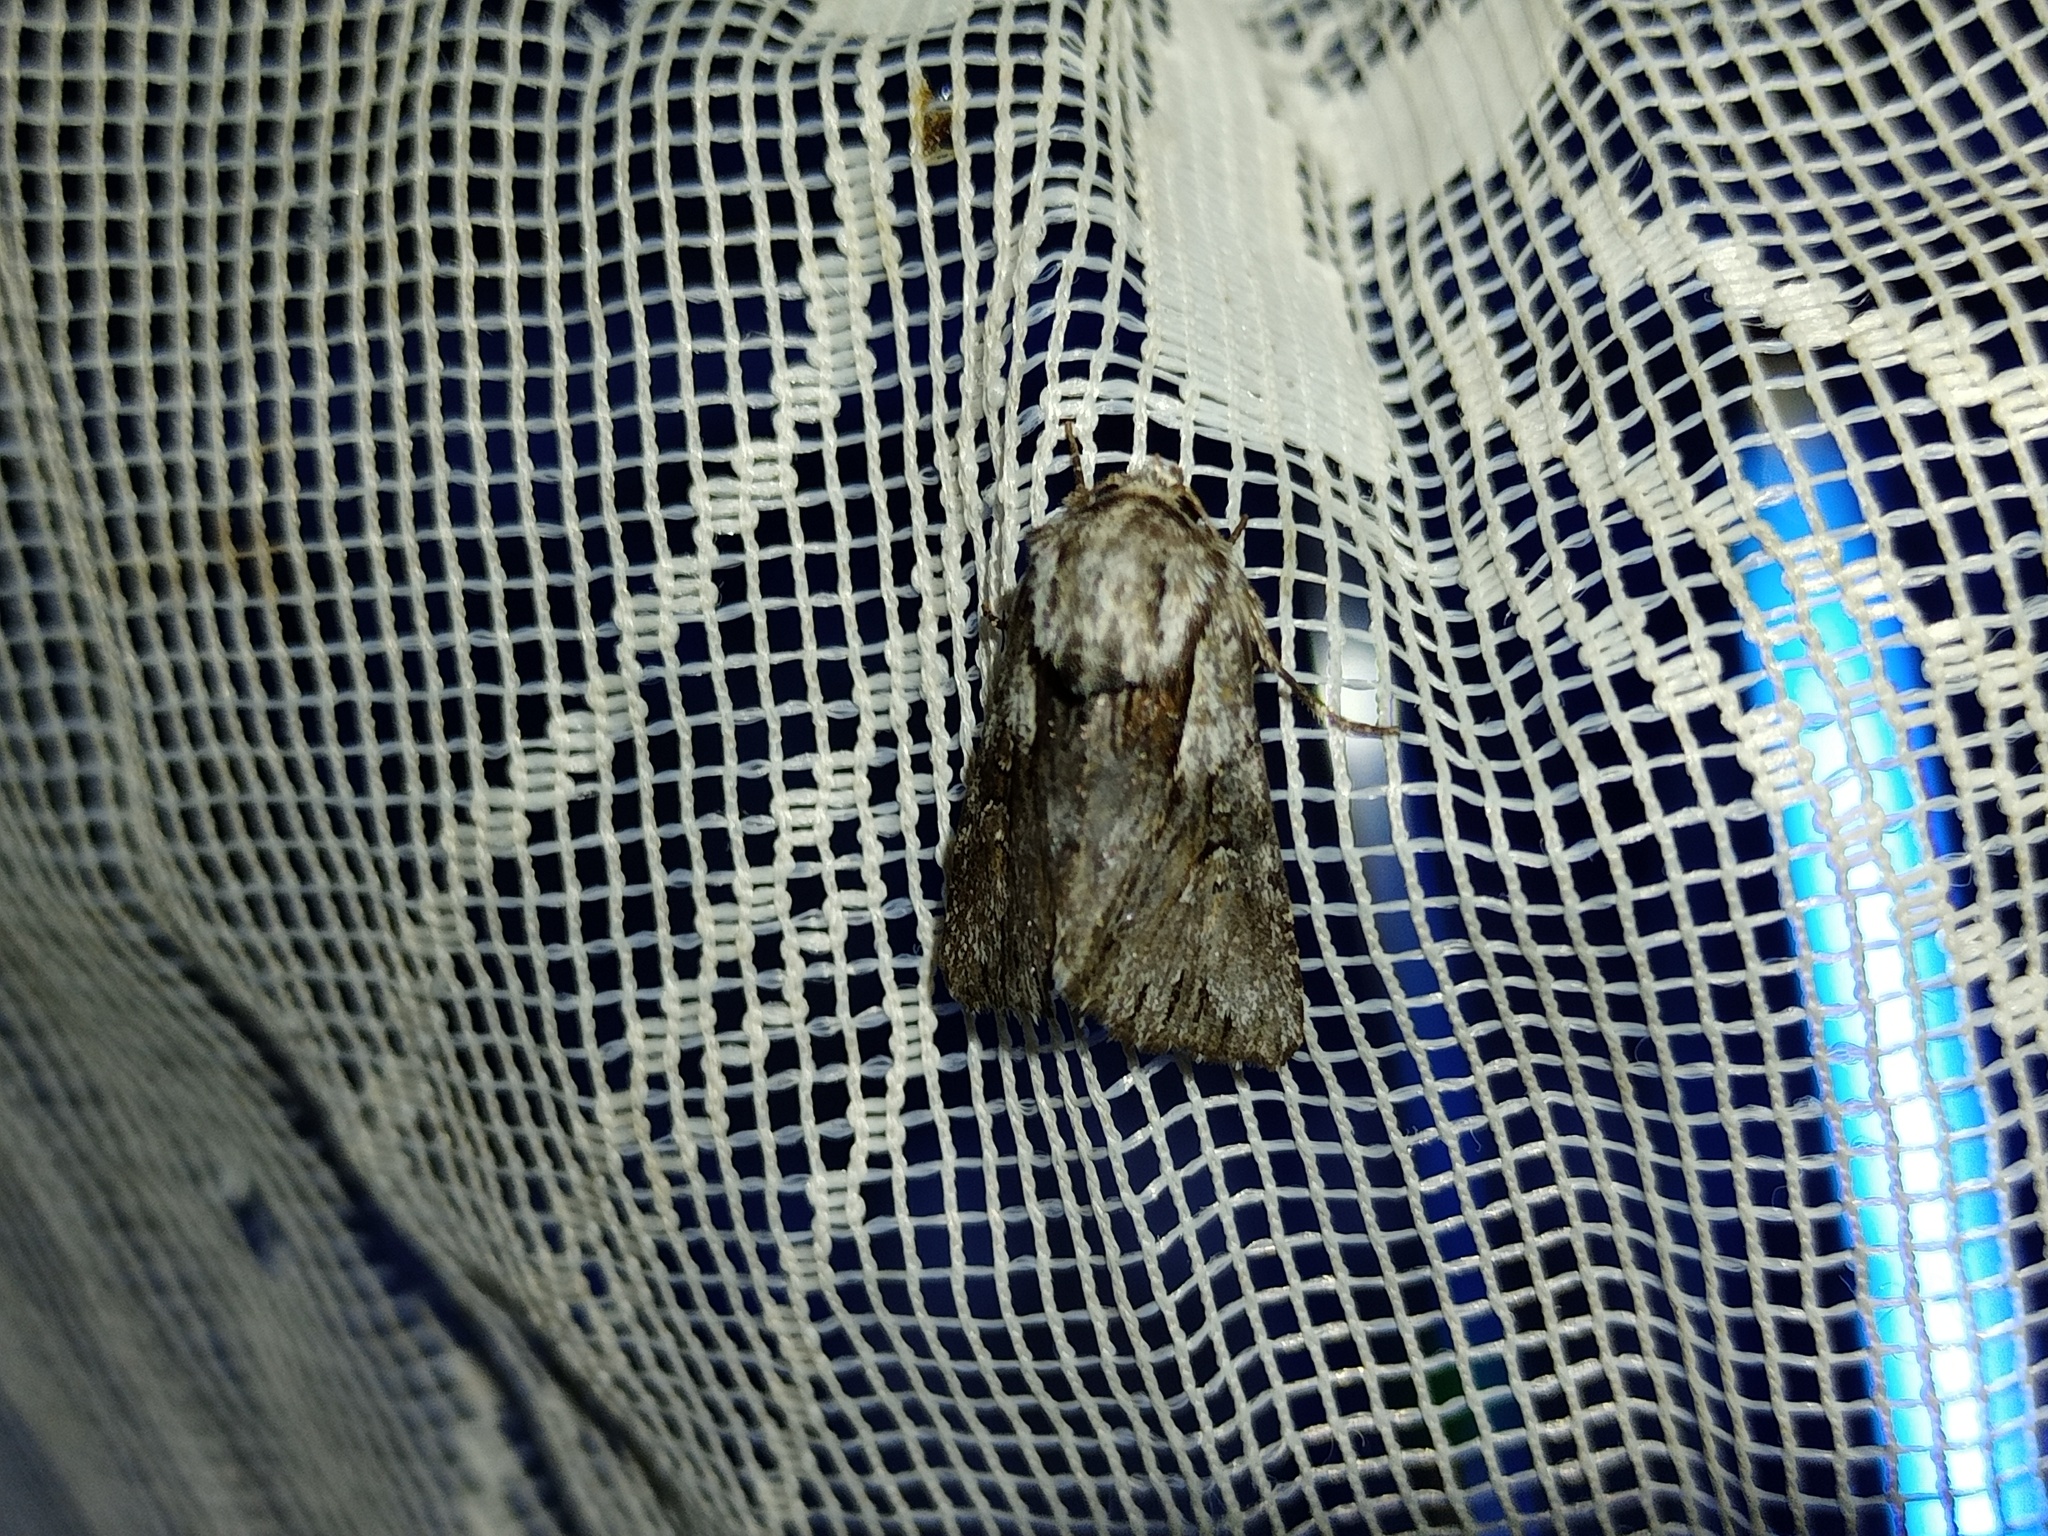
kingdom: Animalia
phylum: Arthropoda
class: Insecta
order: Lepidoptera
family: Noctuidae
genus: Chloantha
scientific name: Chloantha hyperici
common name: Pale-shouldered cloud
